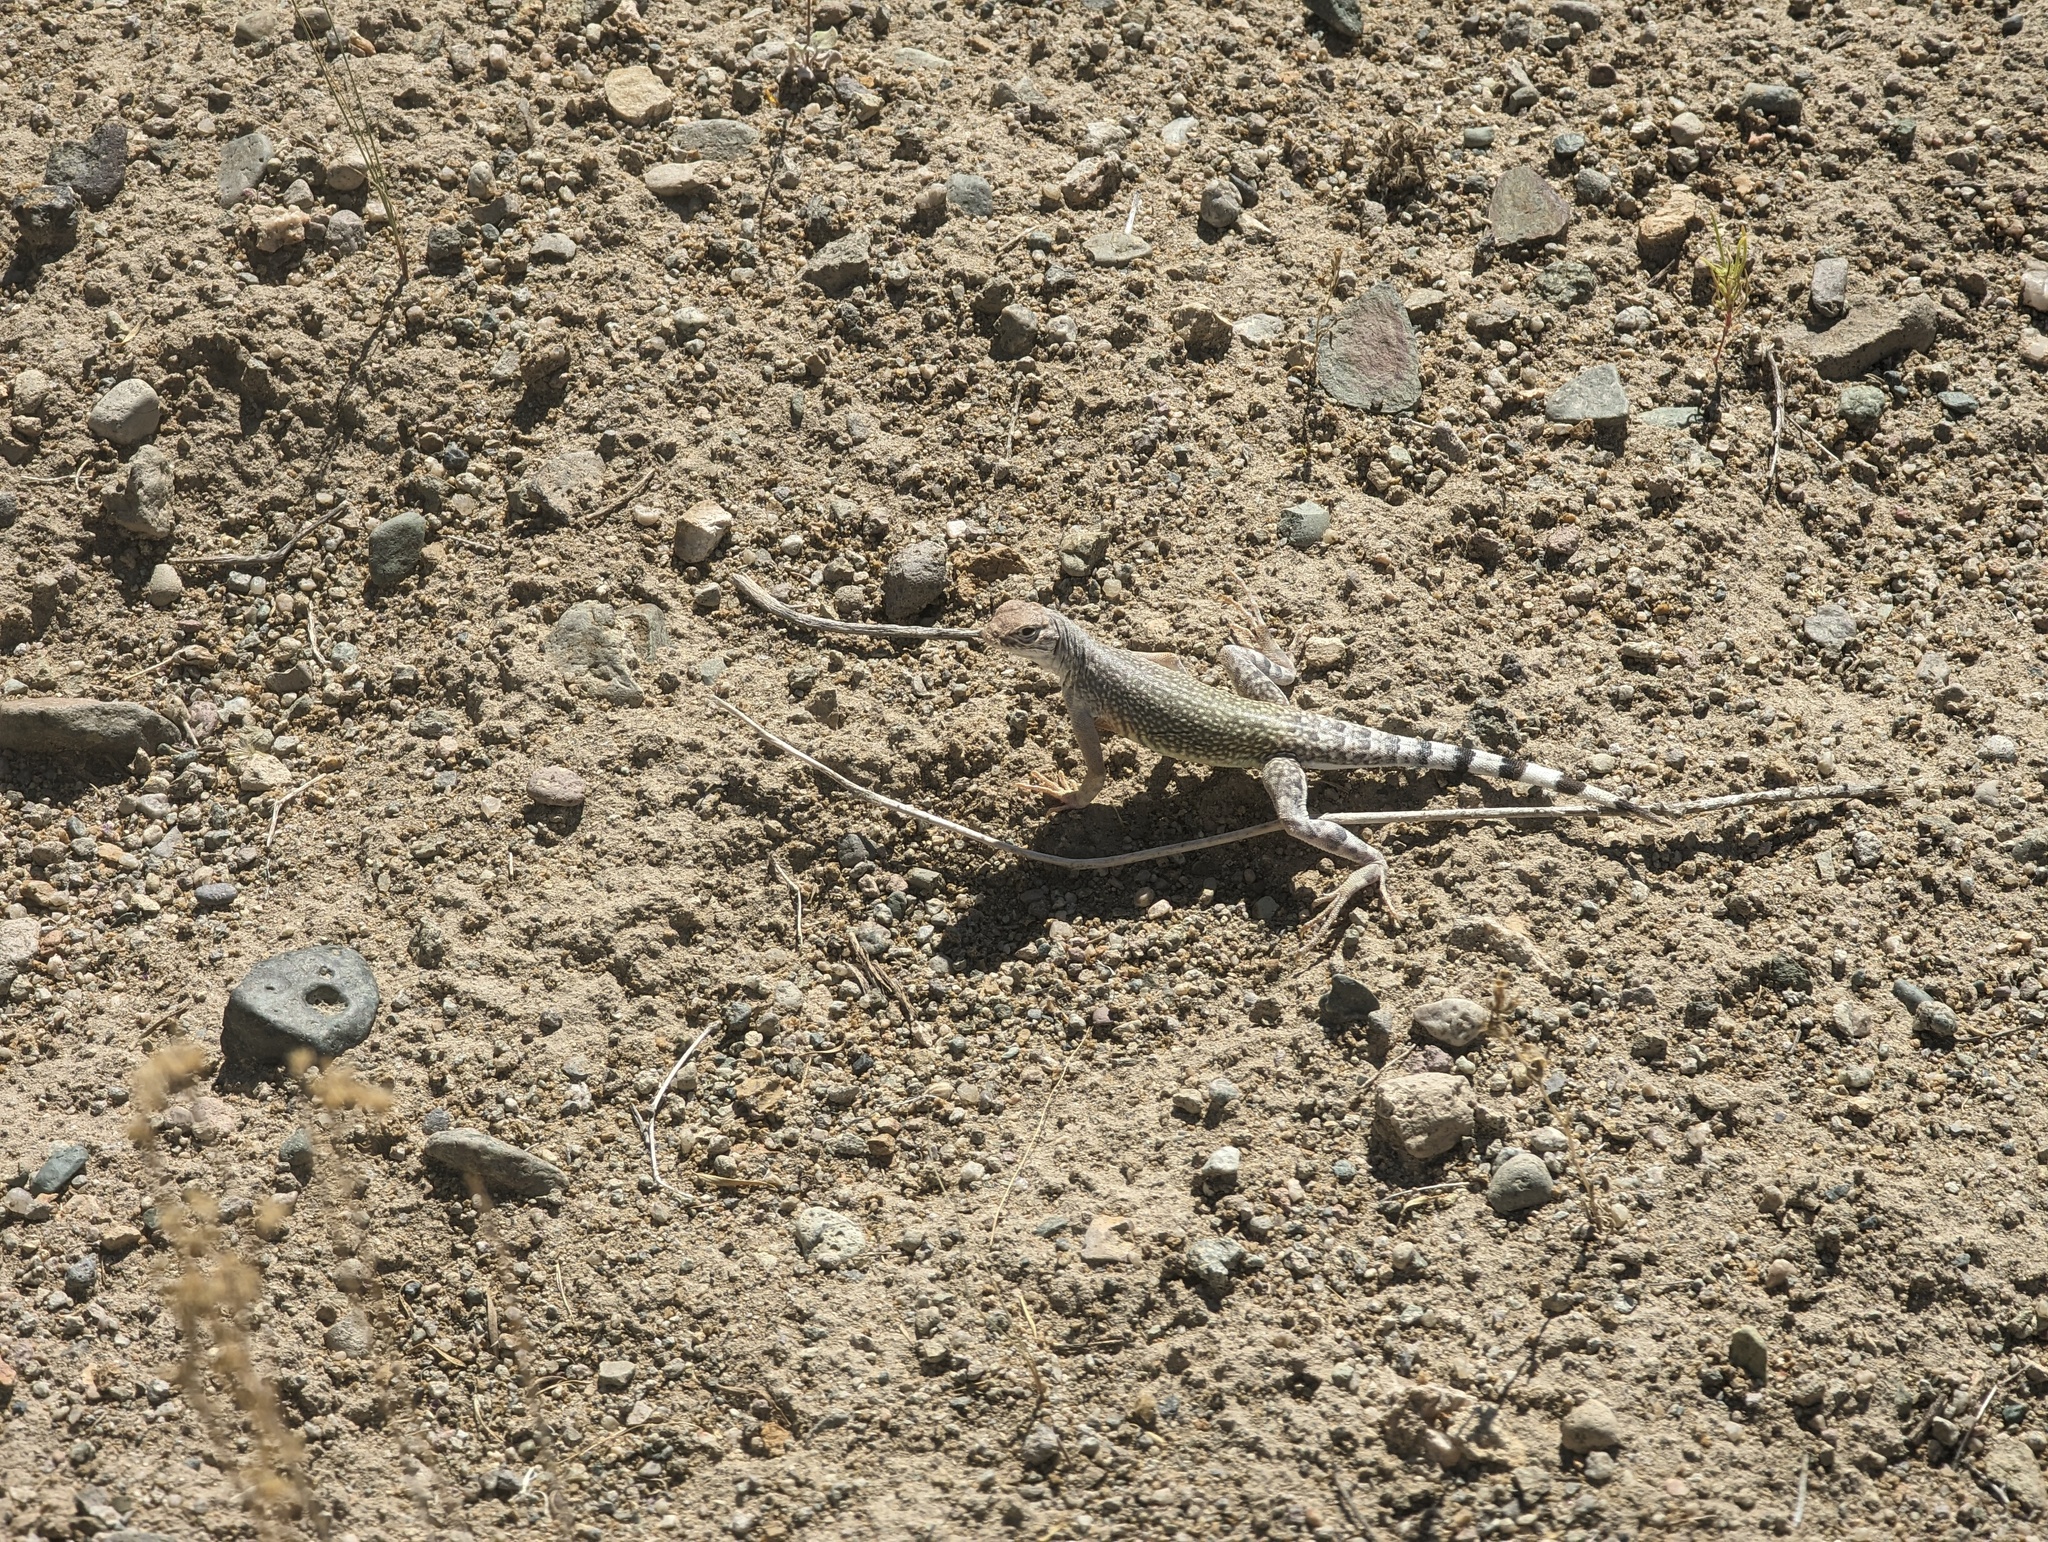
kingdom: Animalia
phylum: Chordata
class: Squamata
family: Phrynosomatidae
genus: Callisaurus
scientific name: Callisaurus draconoides
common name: Zebra-tailed lizard
